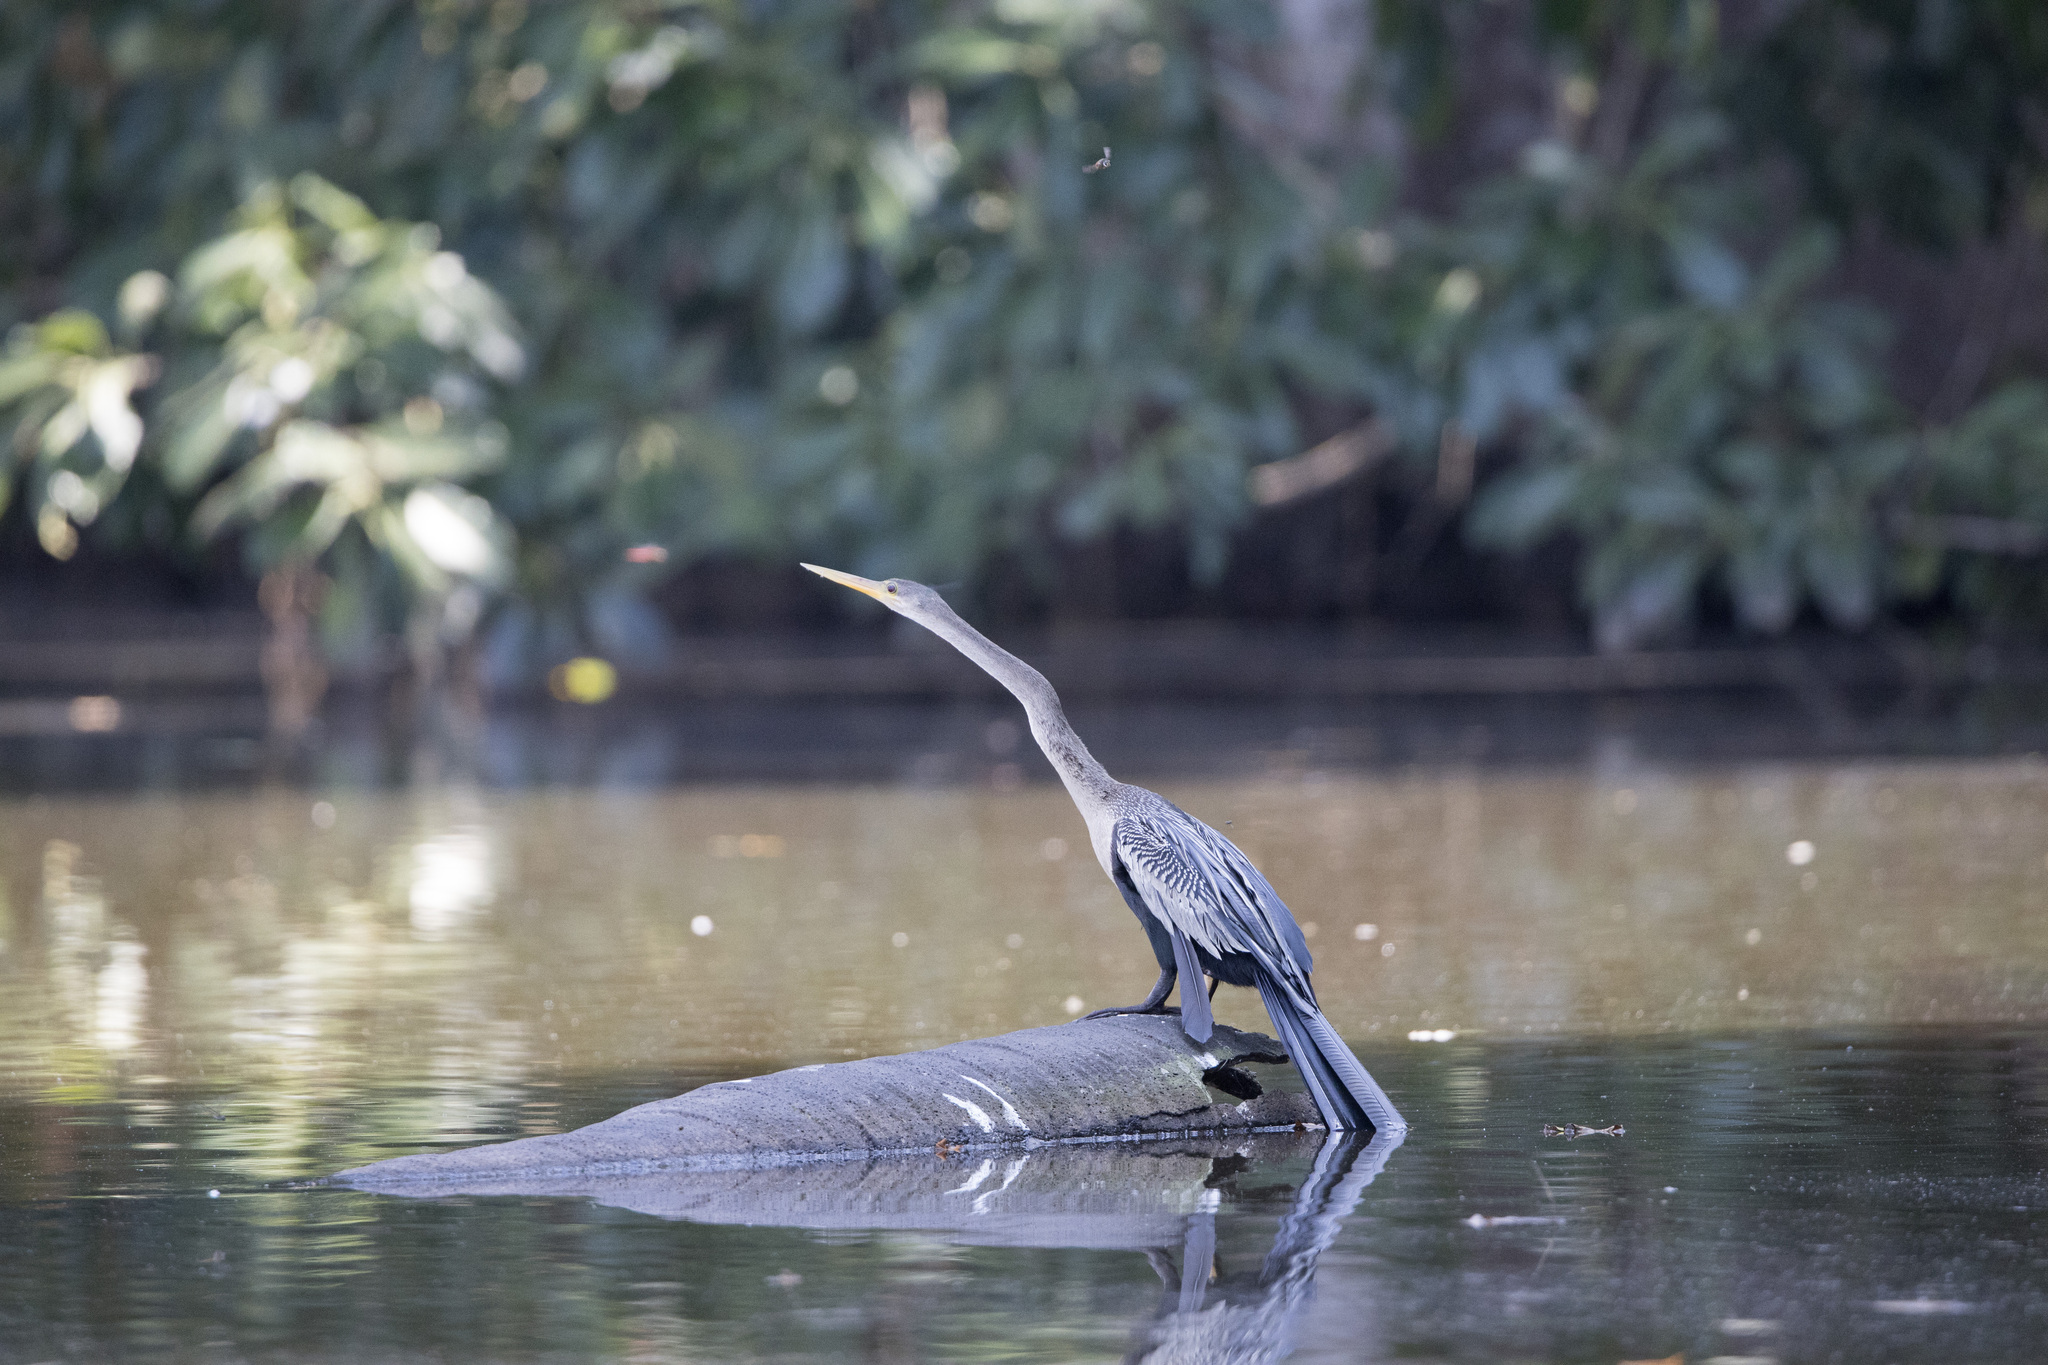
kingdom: Animalia
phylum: Chordata
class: Aves
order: Suliformes
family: Anhingidae
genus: Anhinga
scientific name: Anhinga anhinga
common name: Anhinga
